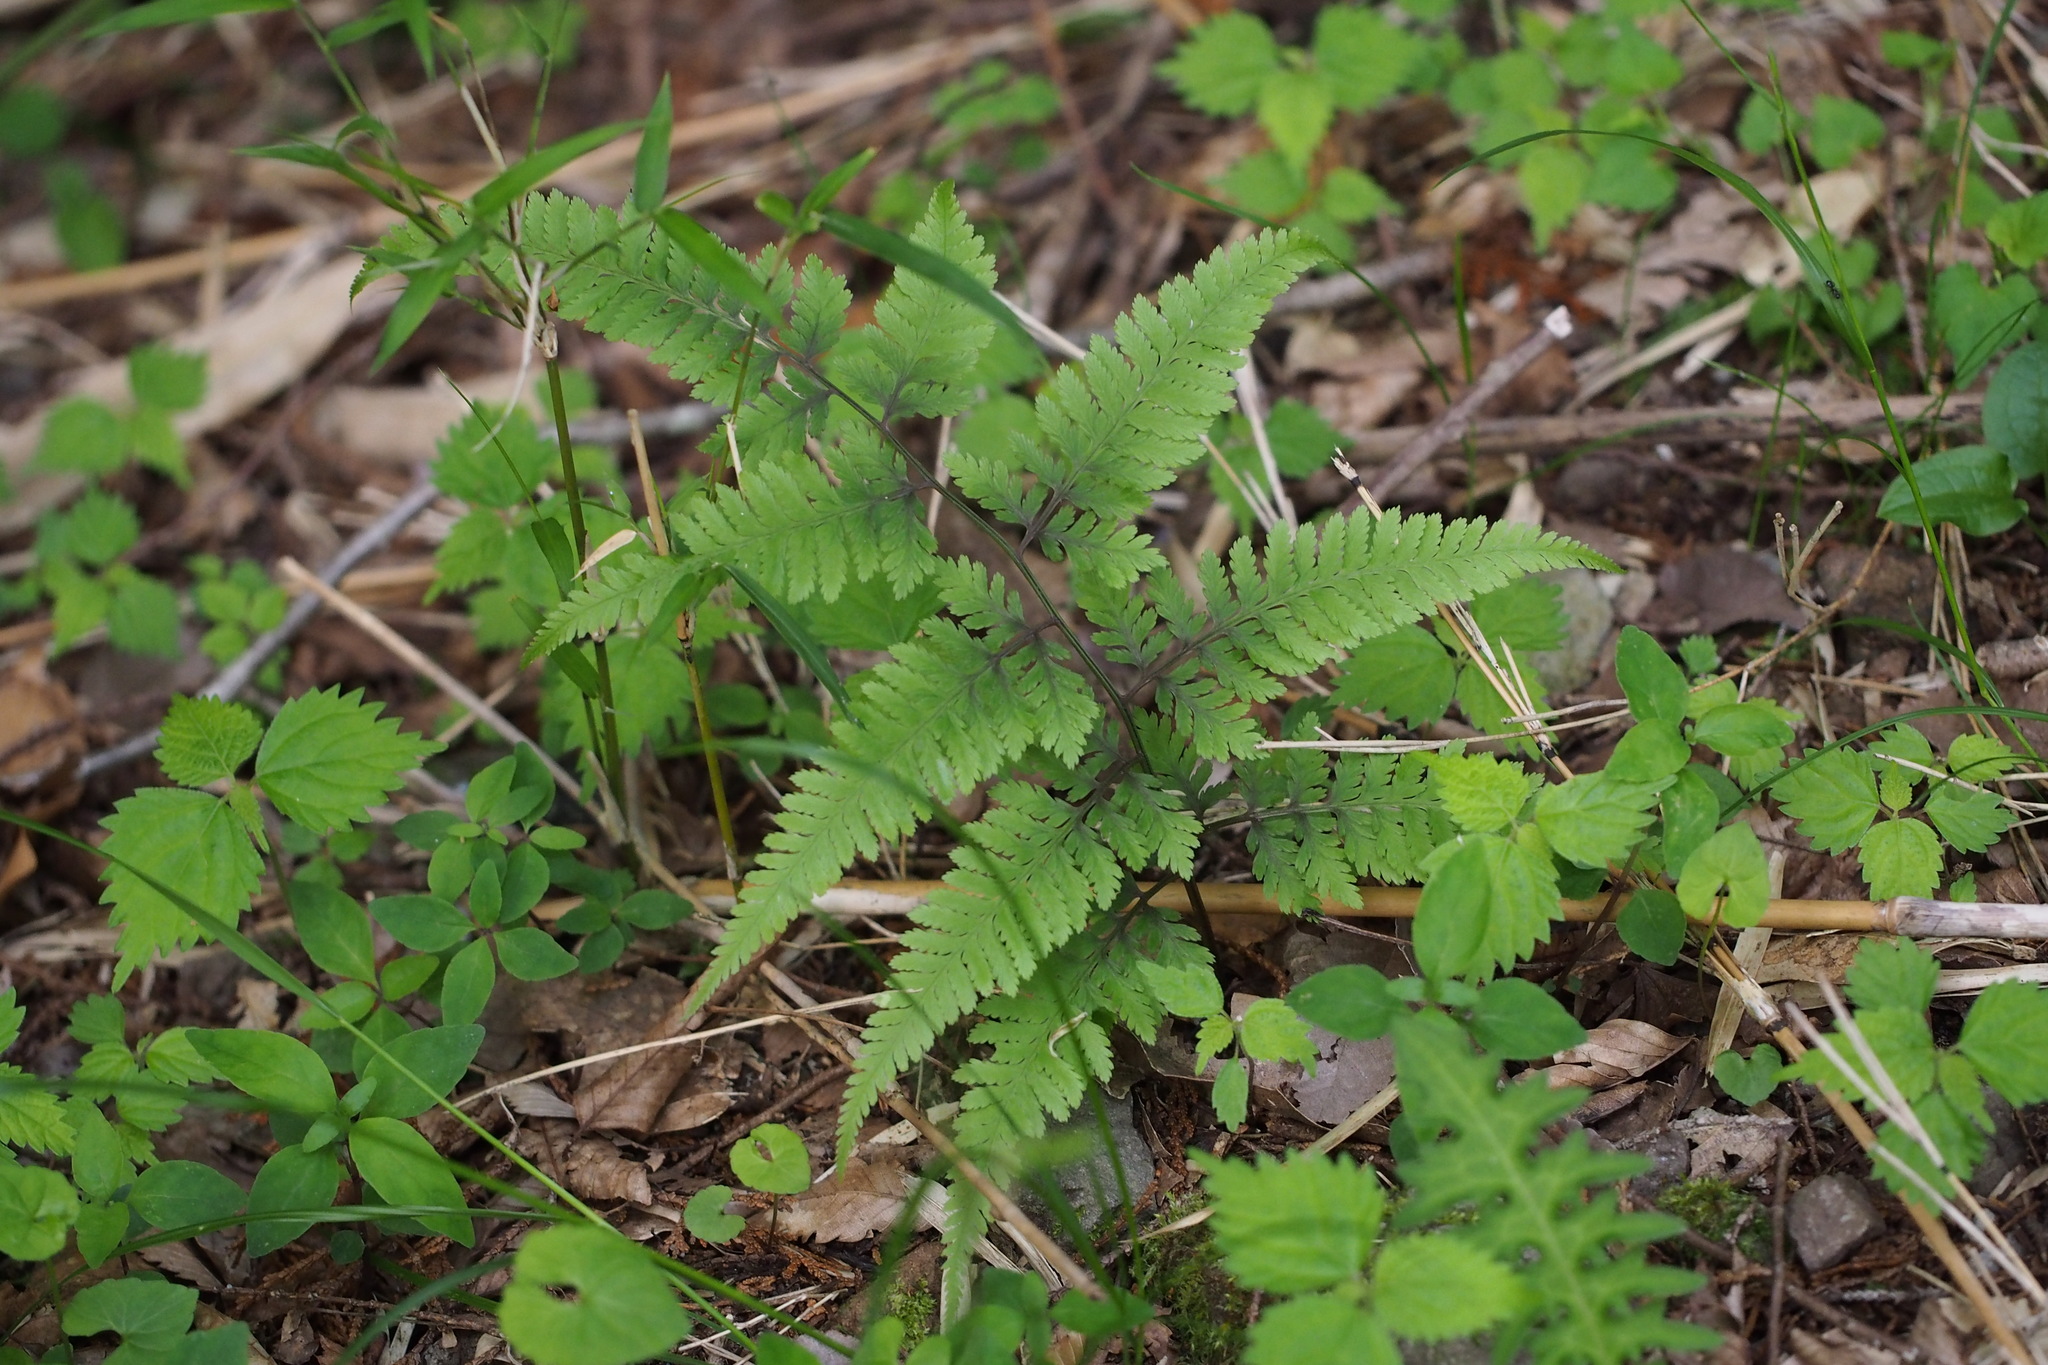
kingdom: Plantae
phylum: Tracheophyta
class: Polypodiopsida
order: Polypodiales
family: Athyriaceae
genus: Anisocampium
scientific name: Anisocampium niponicum
